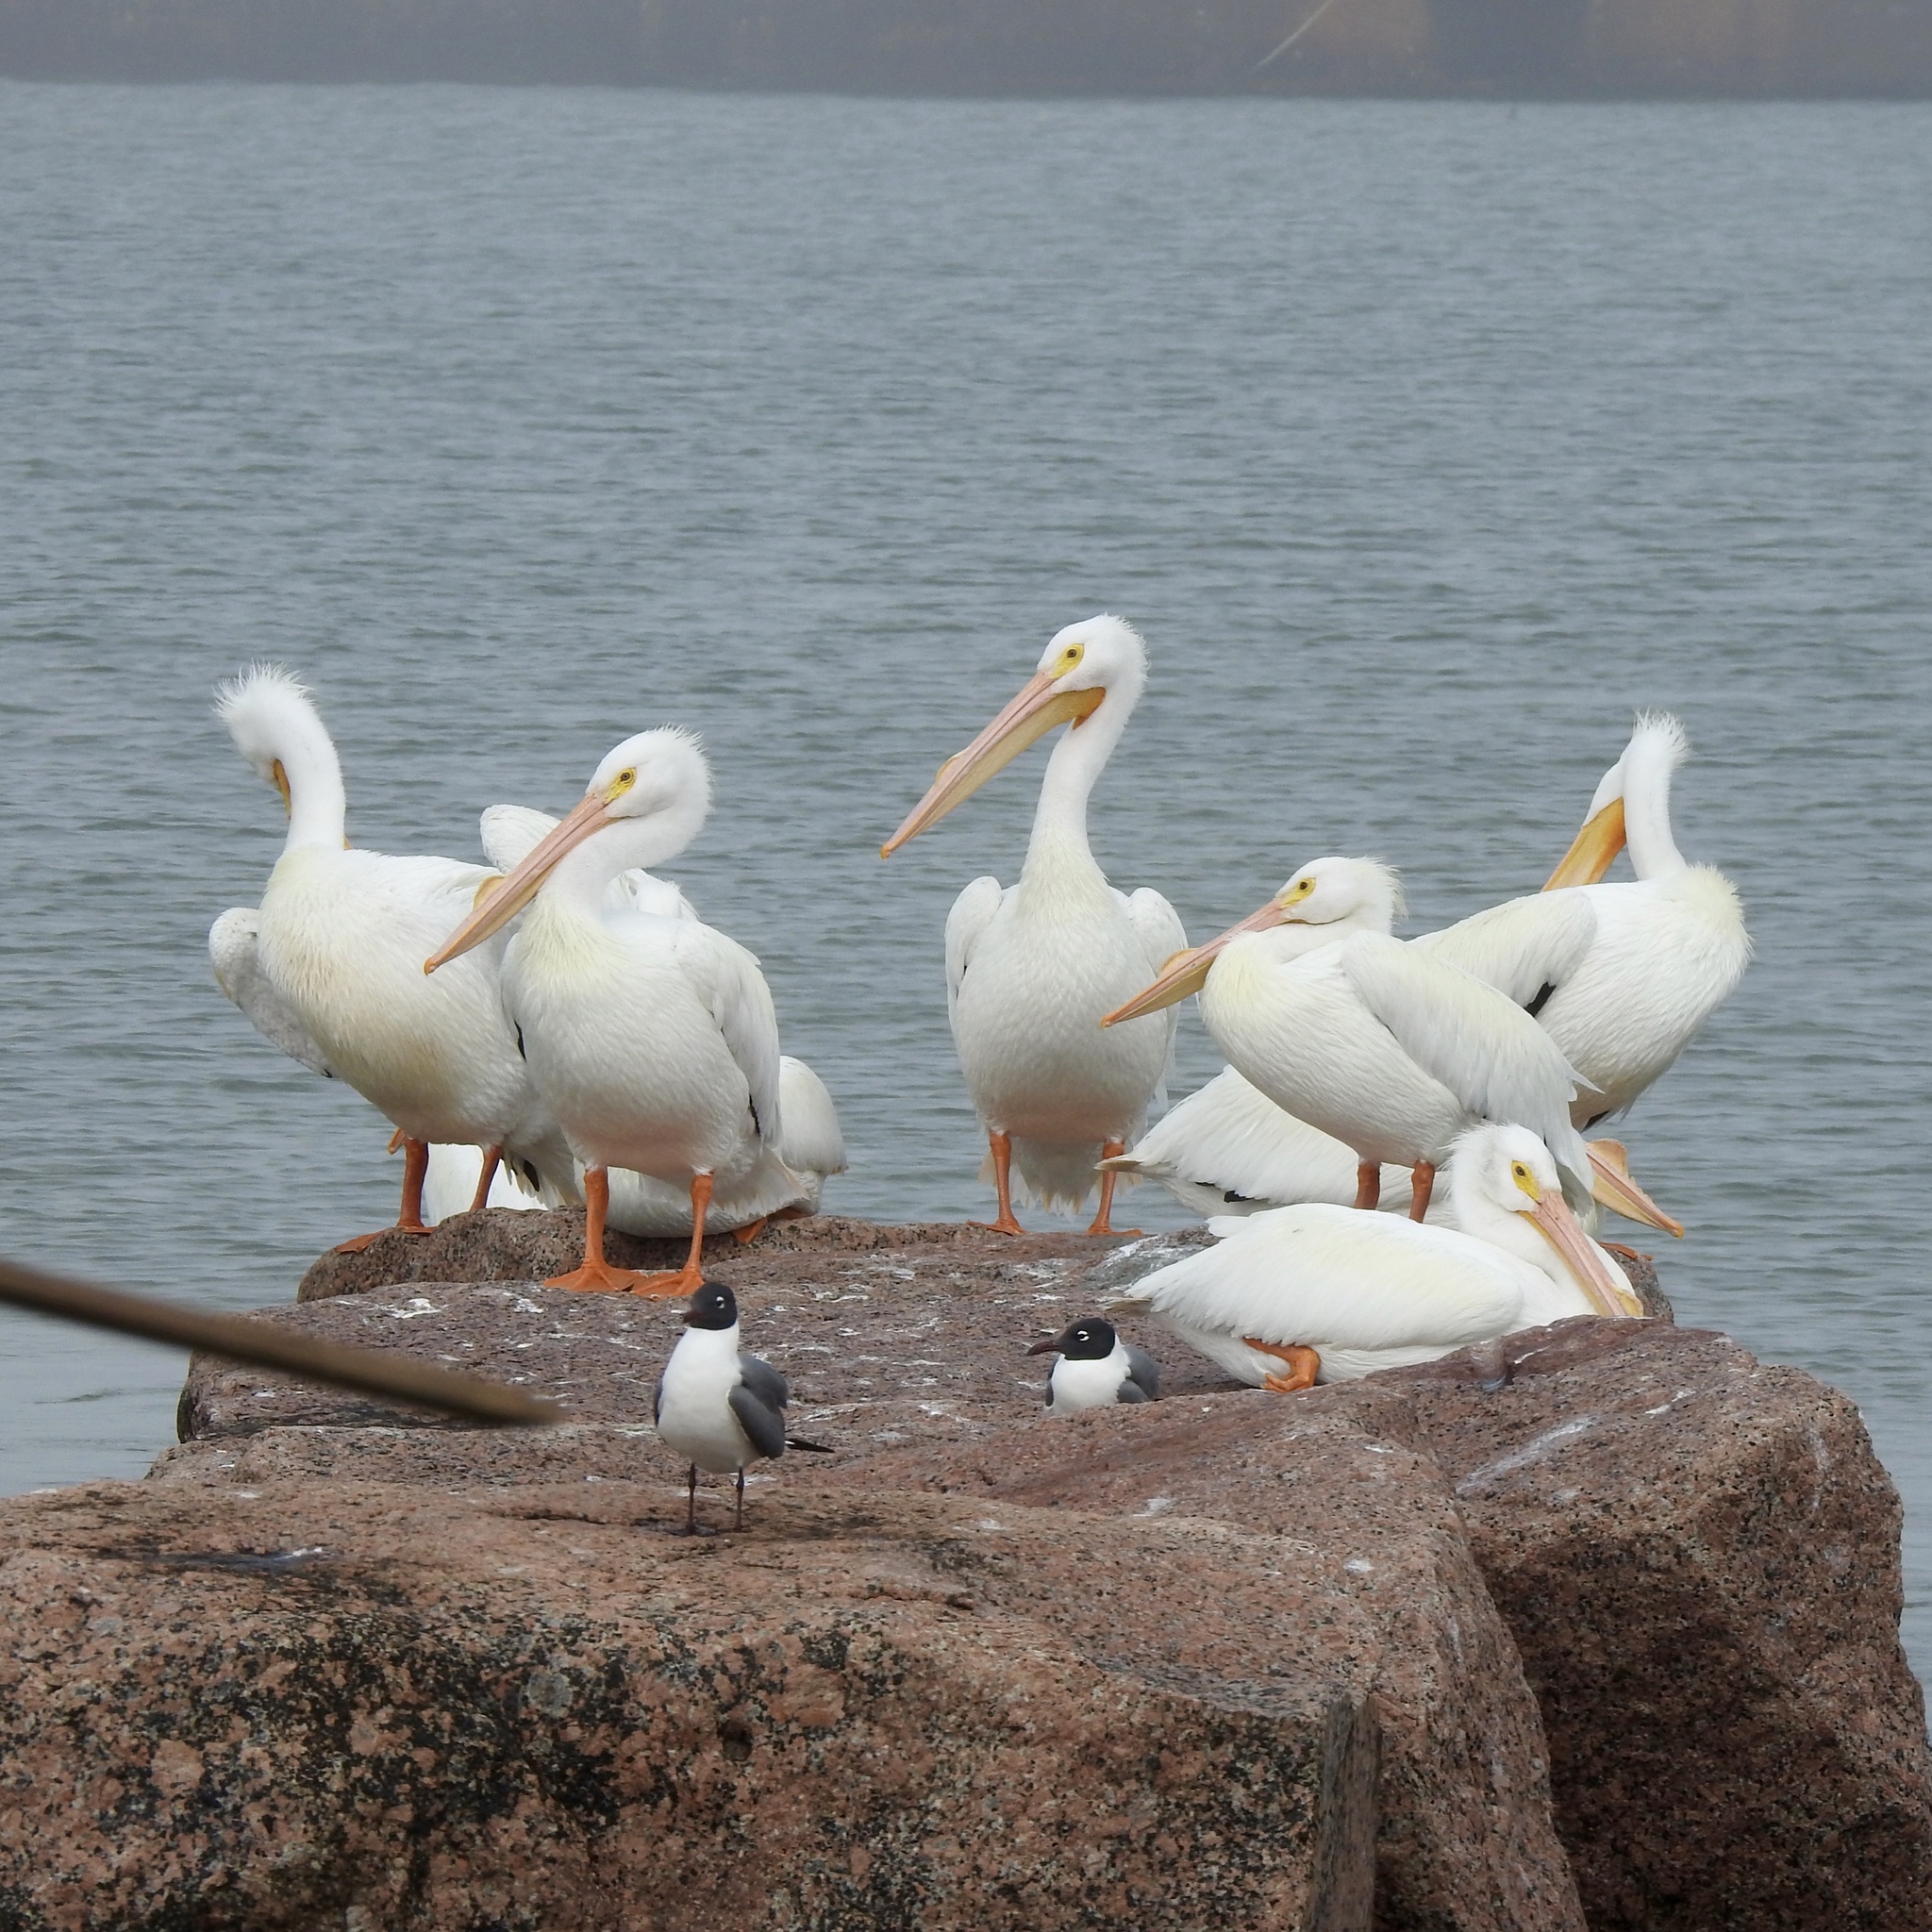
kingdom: Animalia
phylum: Chordata
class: Aves
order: Pelecaniformes
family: Pelecanidae
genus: Pelecanus
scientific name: Pelecanus erythrorhynchos
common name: American white pelican
